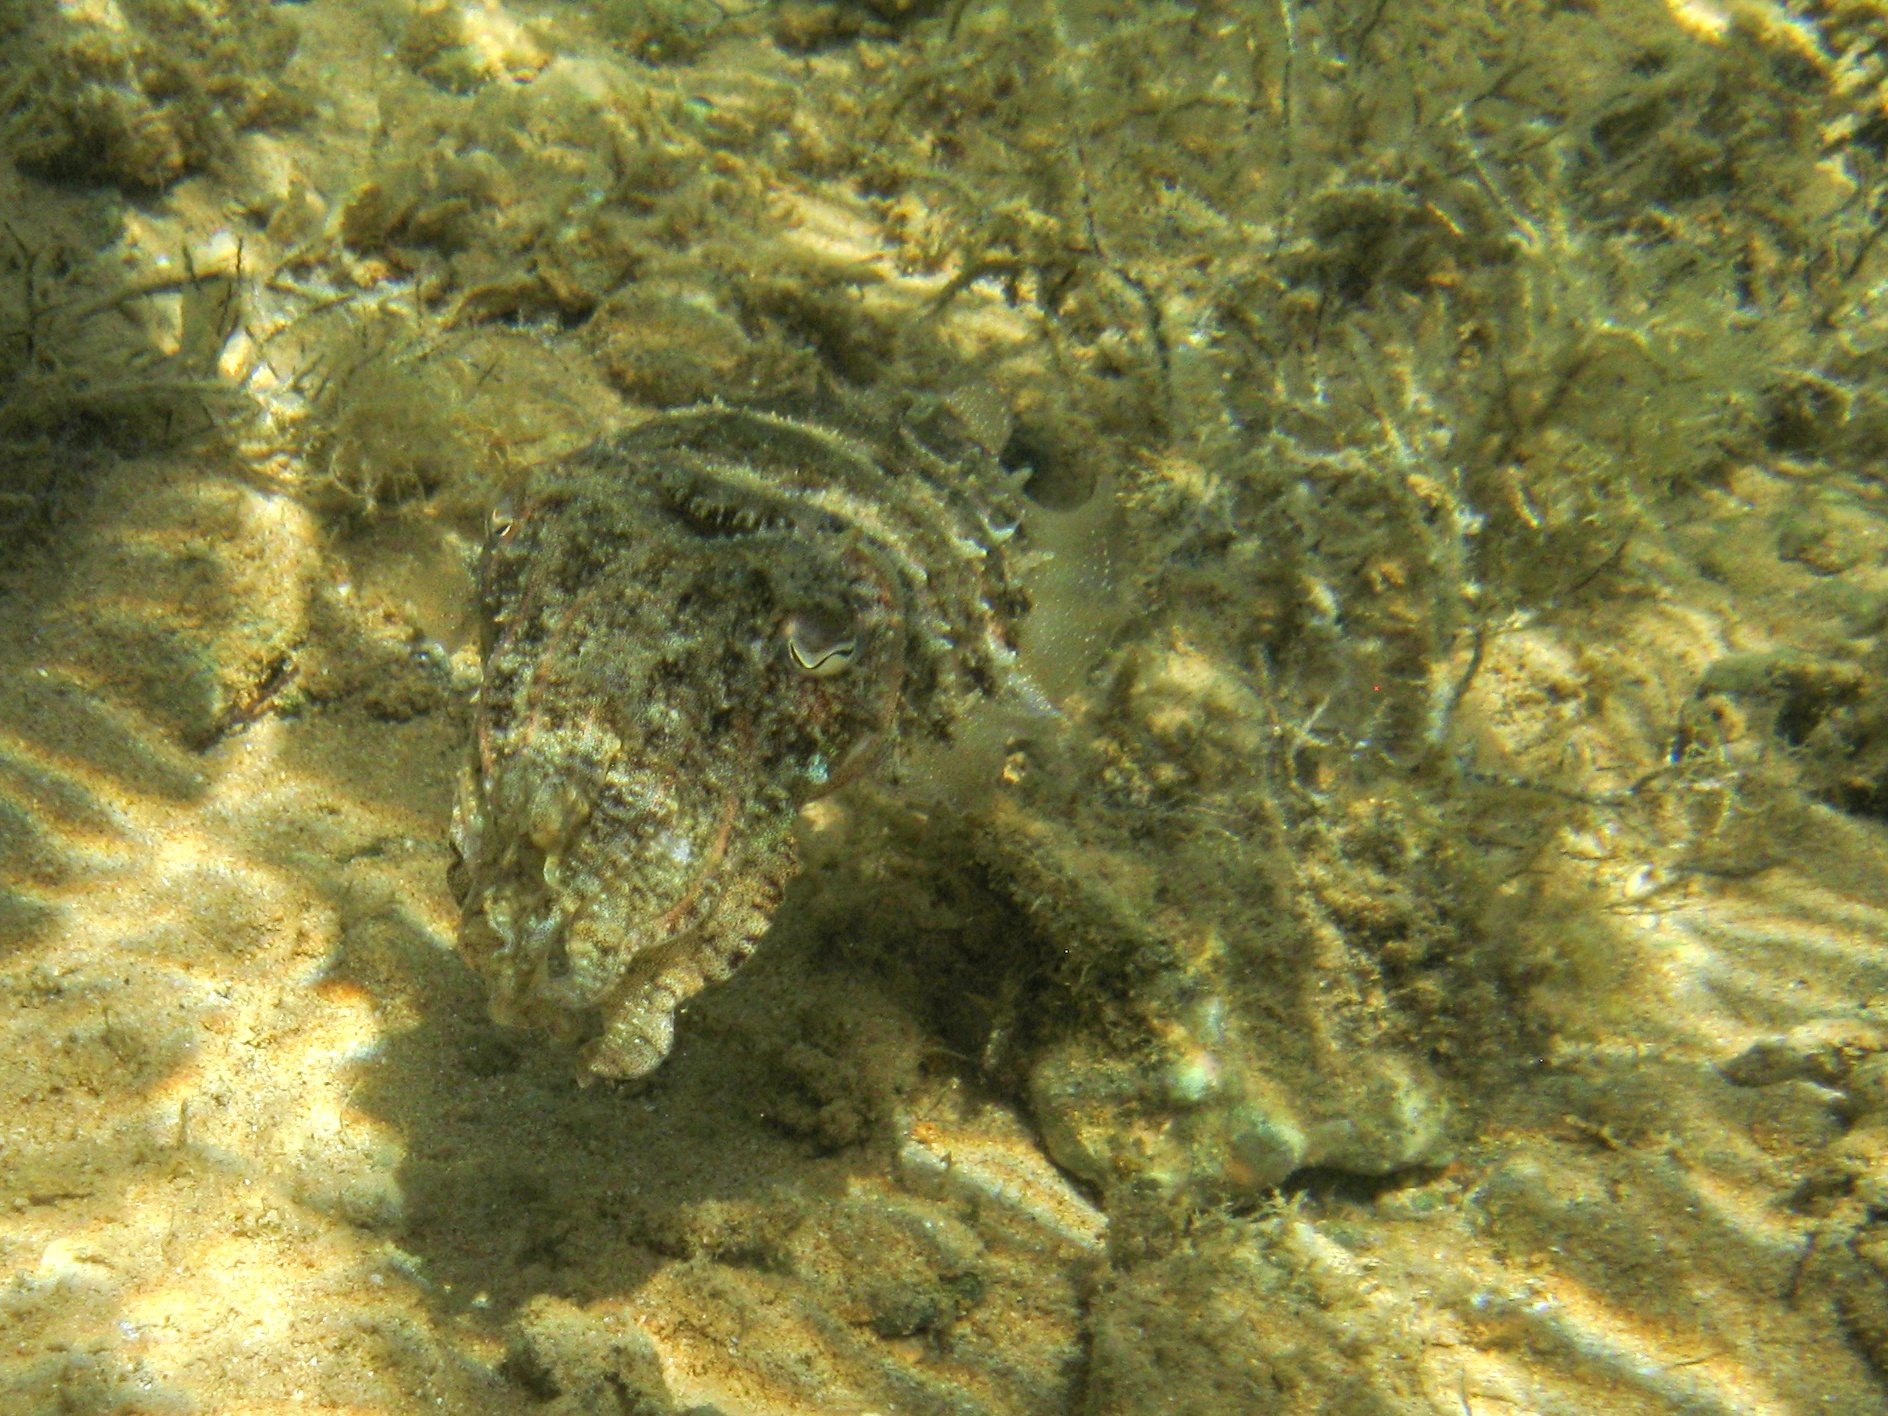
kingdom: Animalia
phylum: Mollusca
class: Cephalopoda
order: Sepiida
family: Sepiidae
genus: Sepia
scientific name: Sepia officinalis
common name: Common cuttlefish
